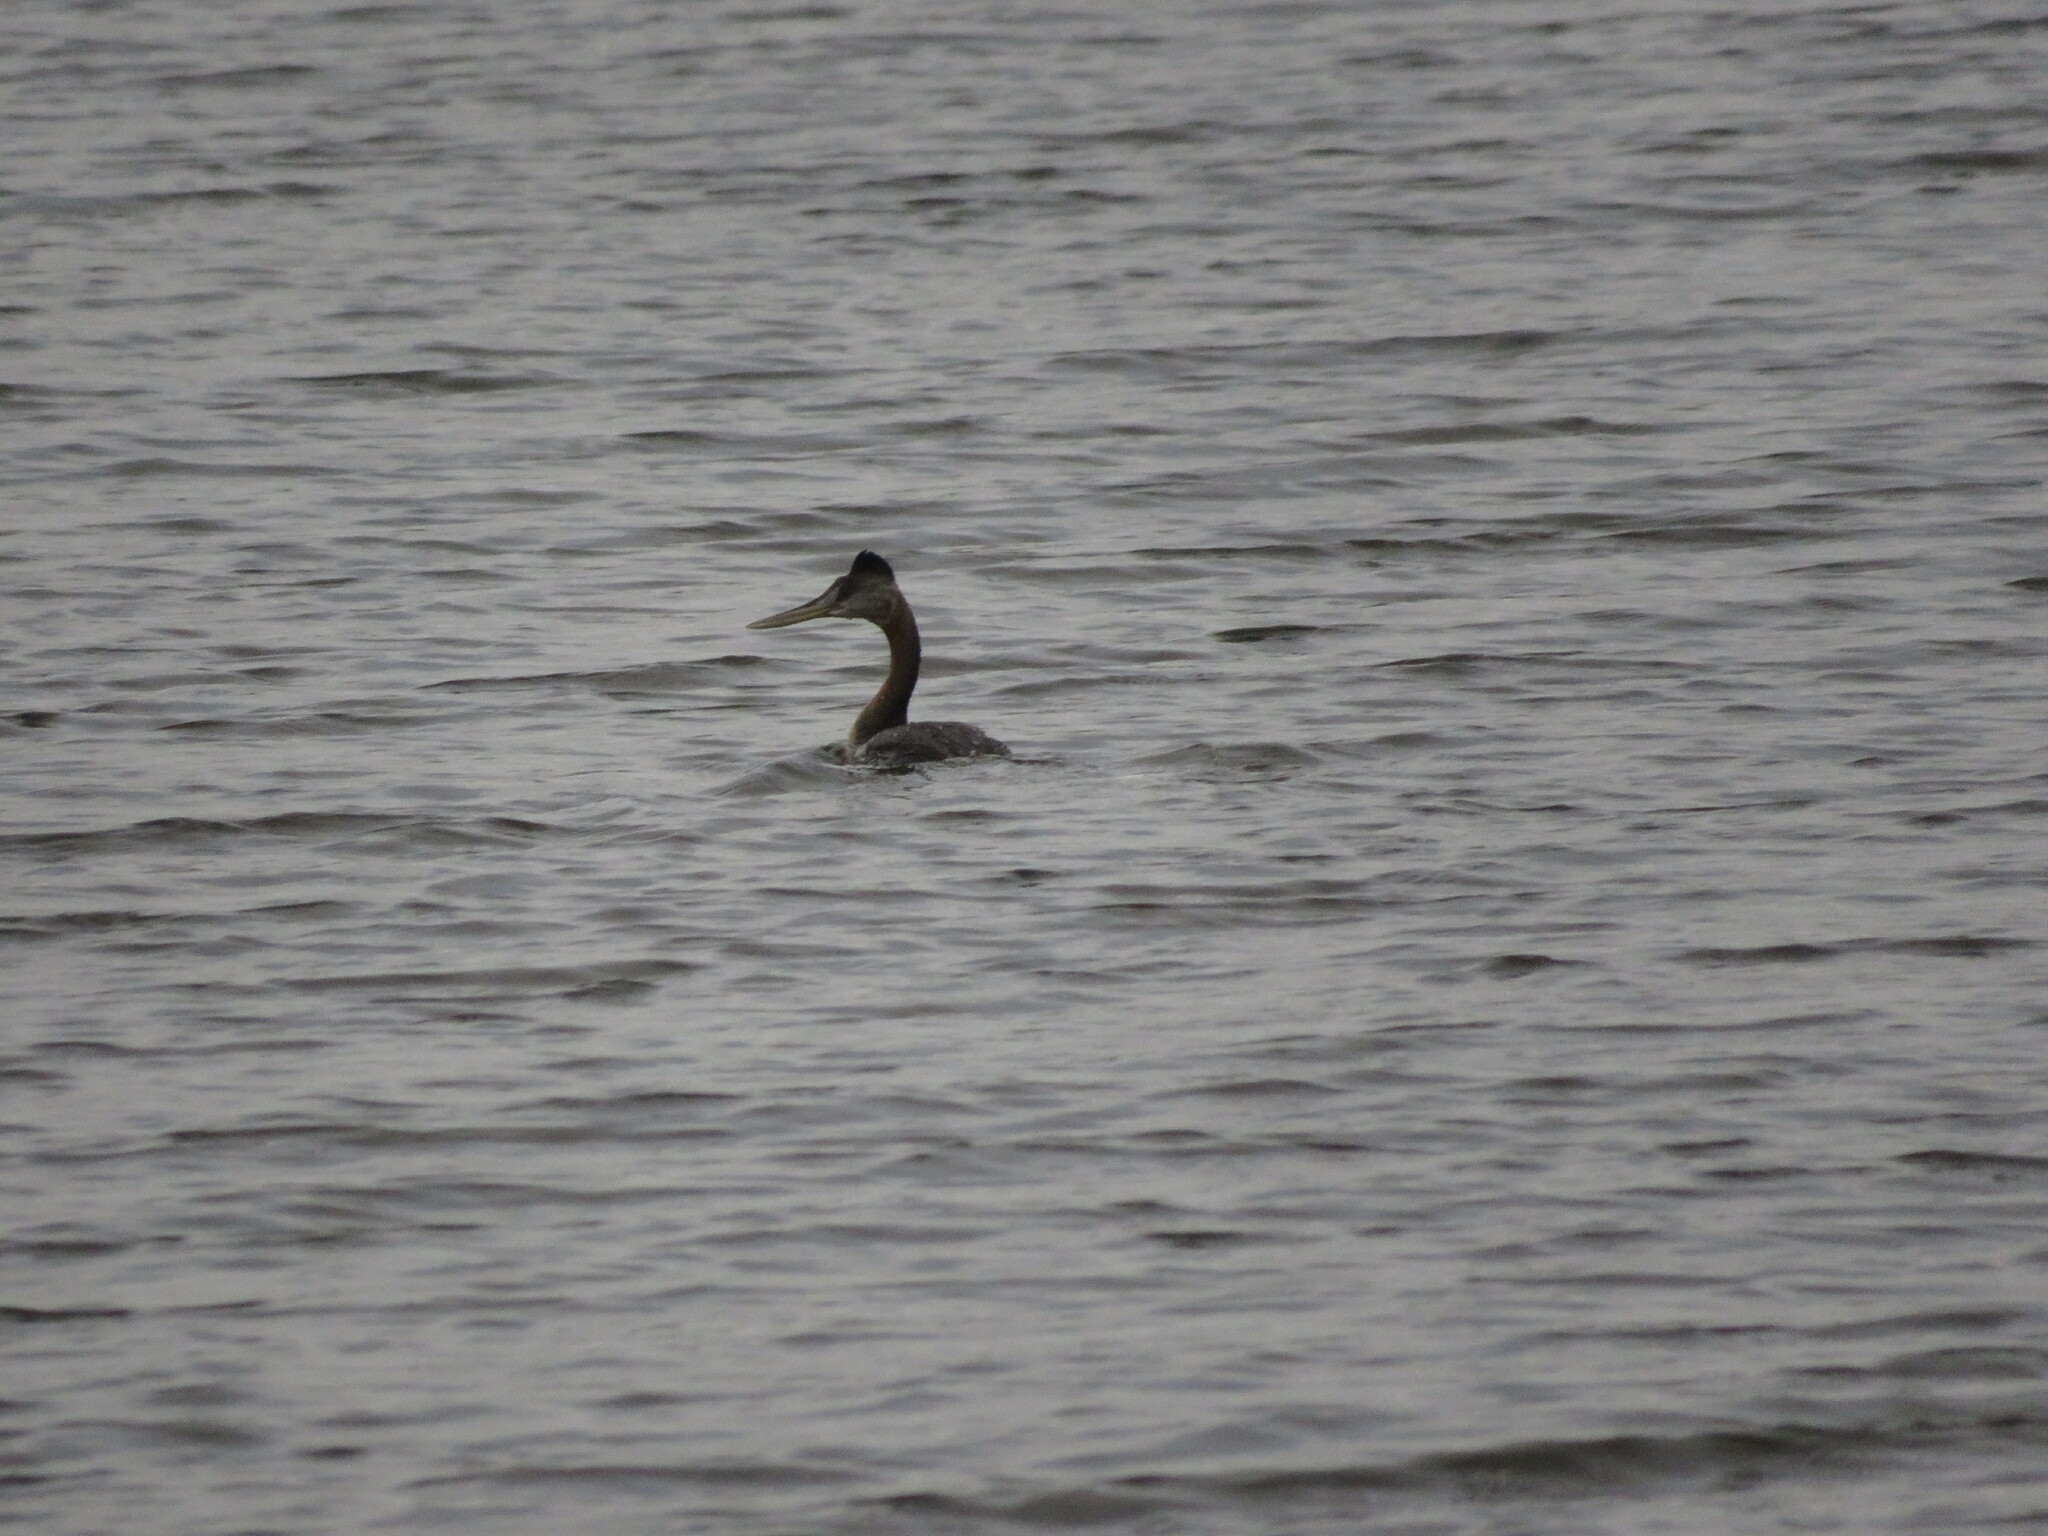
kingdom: Animalia
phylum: Chordata
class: Aves
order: Podicipediformes
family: Podicipedidae
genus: Podiceps
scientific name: Podiceps major
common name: Great grebe
